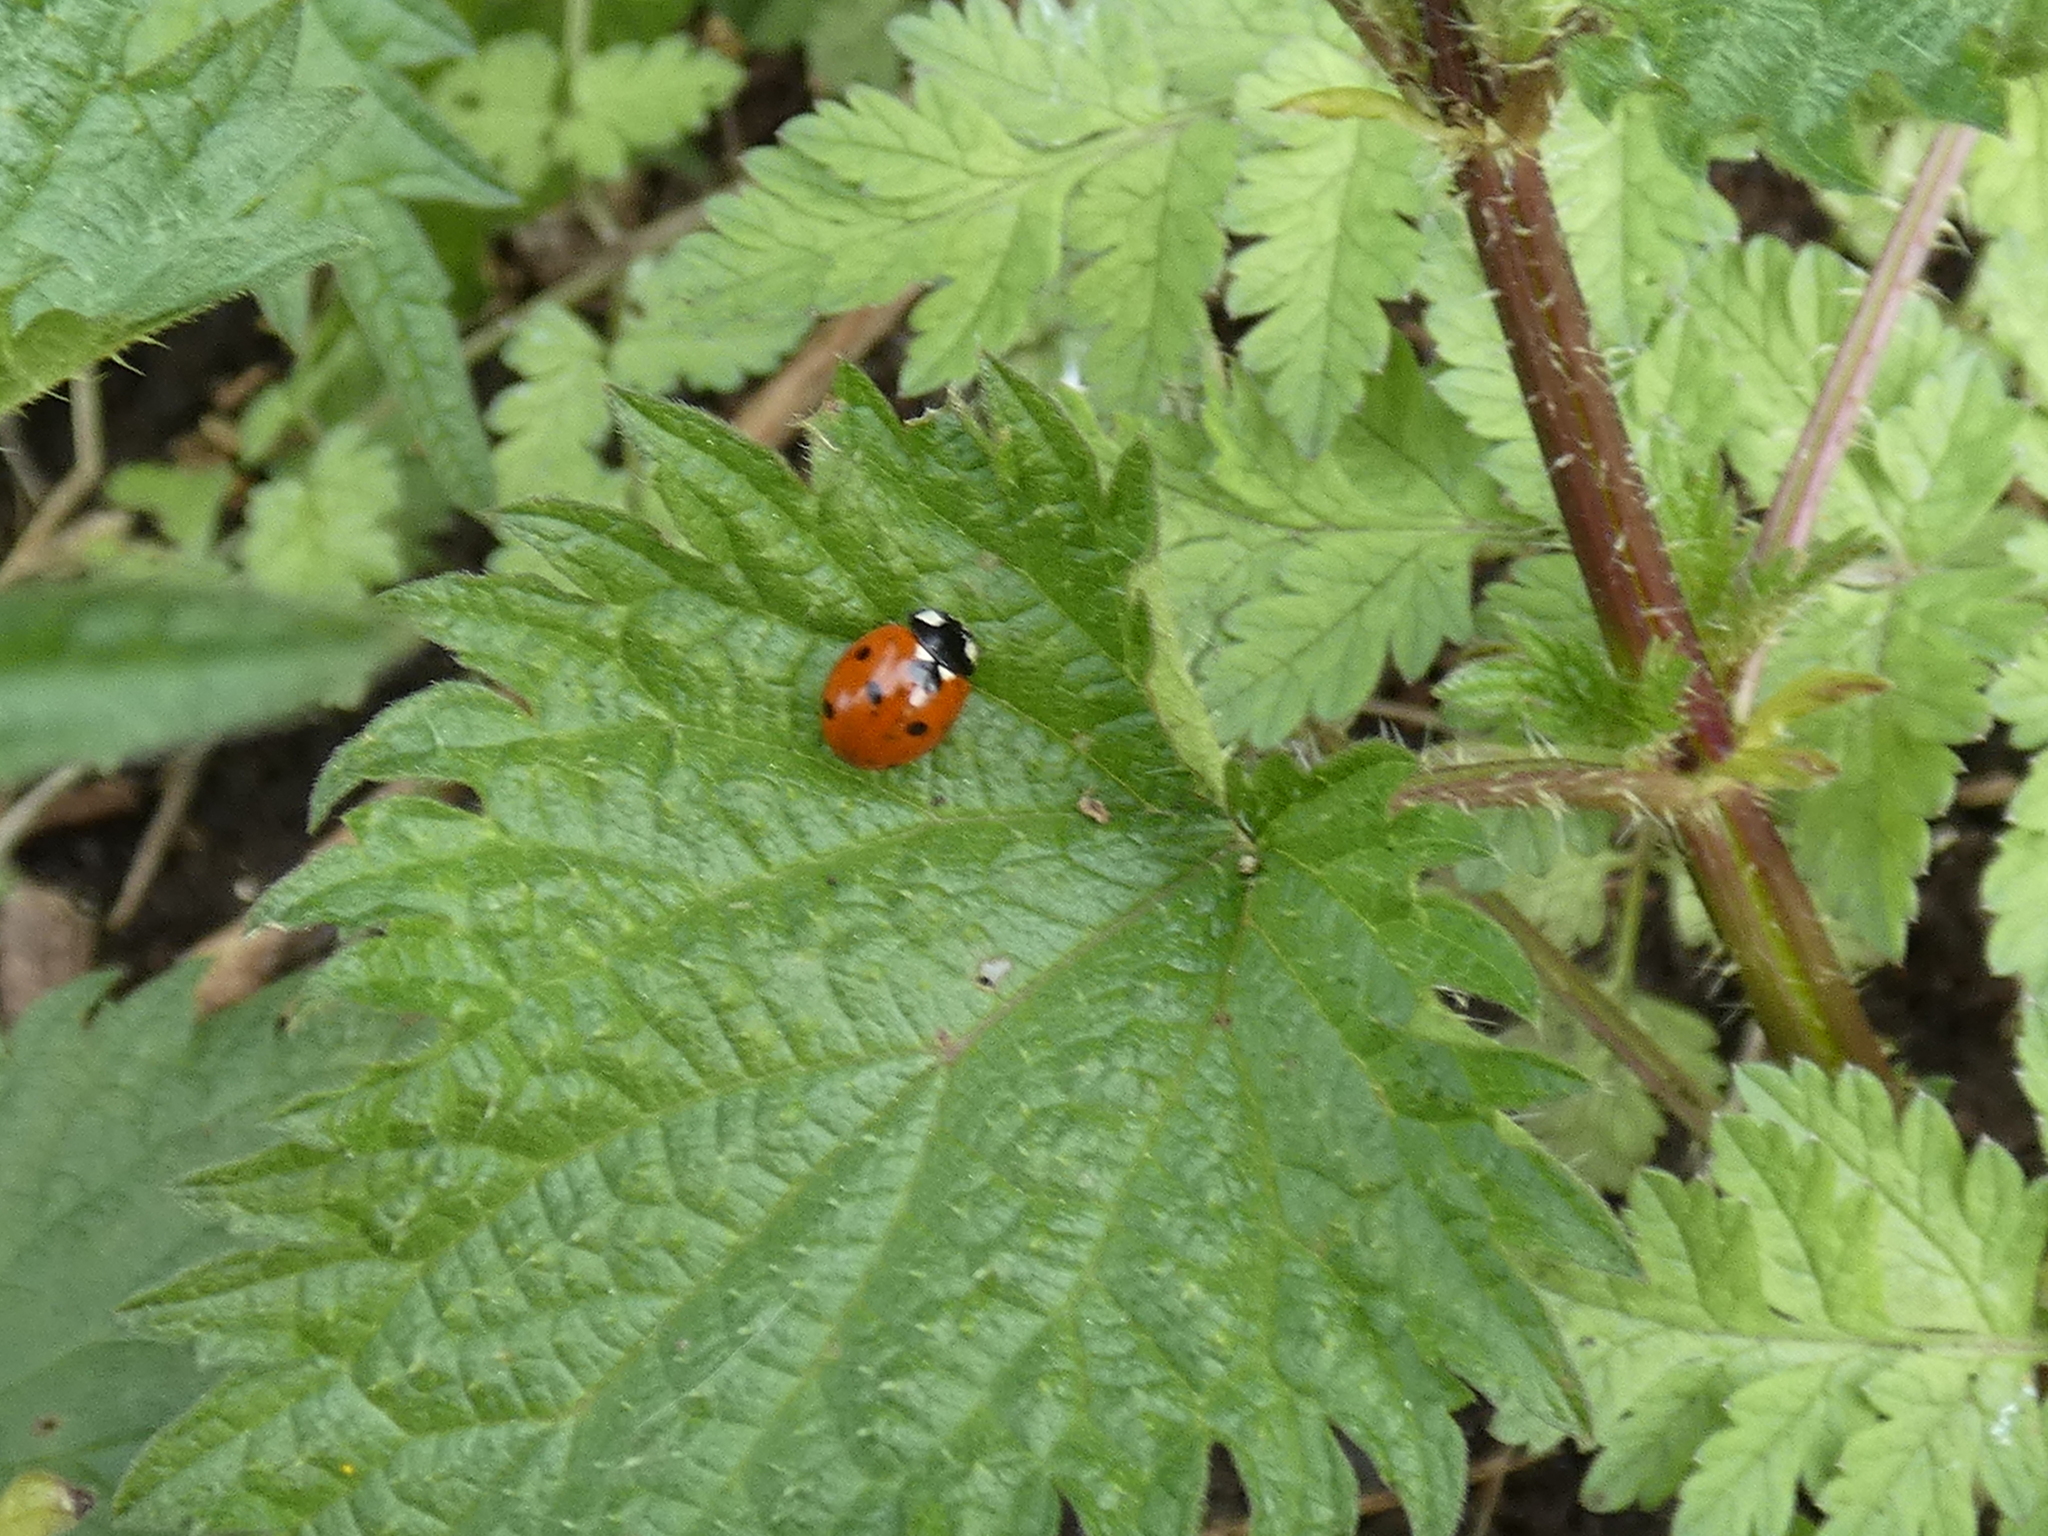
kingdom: Animalia
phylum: Arthropoda
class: Insecta
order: Coleoptera
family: Coccinellidae
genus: Coccinella
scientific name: Coccinella septempunctata
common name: Sevenspotted lady beetle
